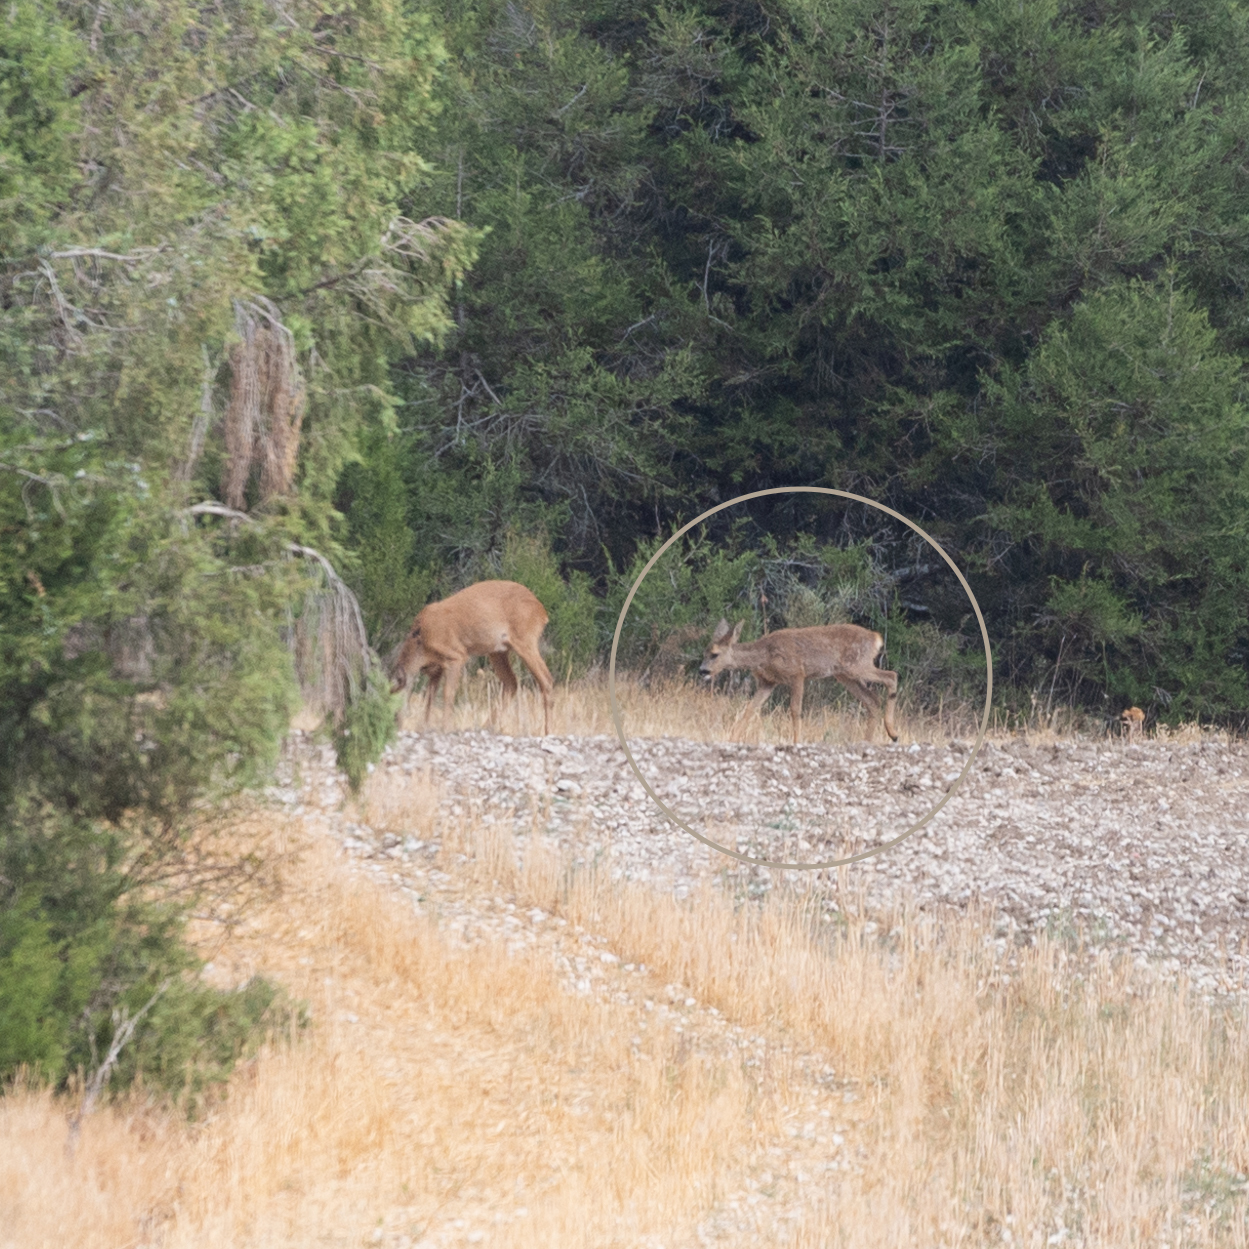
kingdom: Animalia
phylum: Chordata
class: Mammalia
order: Artiodactyla
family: Cervidae
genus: Capreolus
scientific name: Capreolus capreolus
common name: Western roe deer
